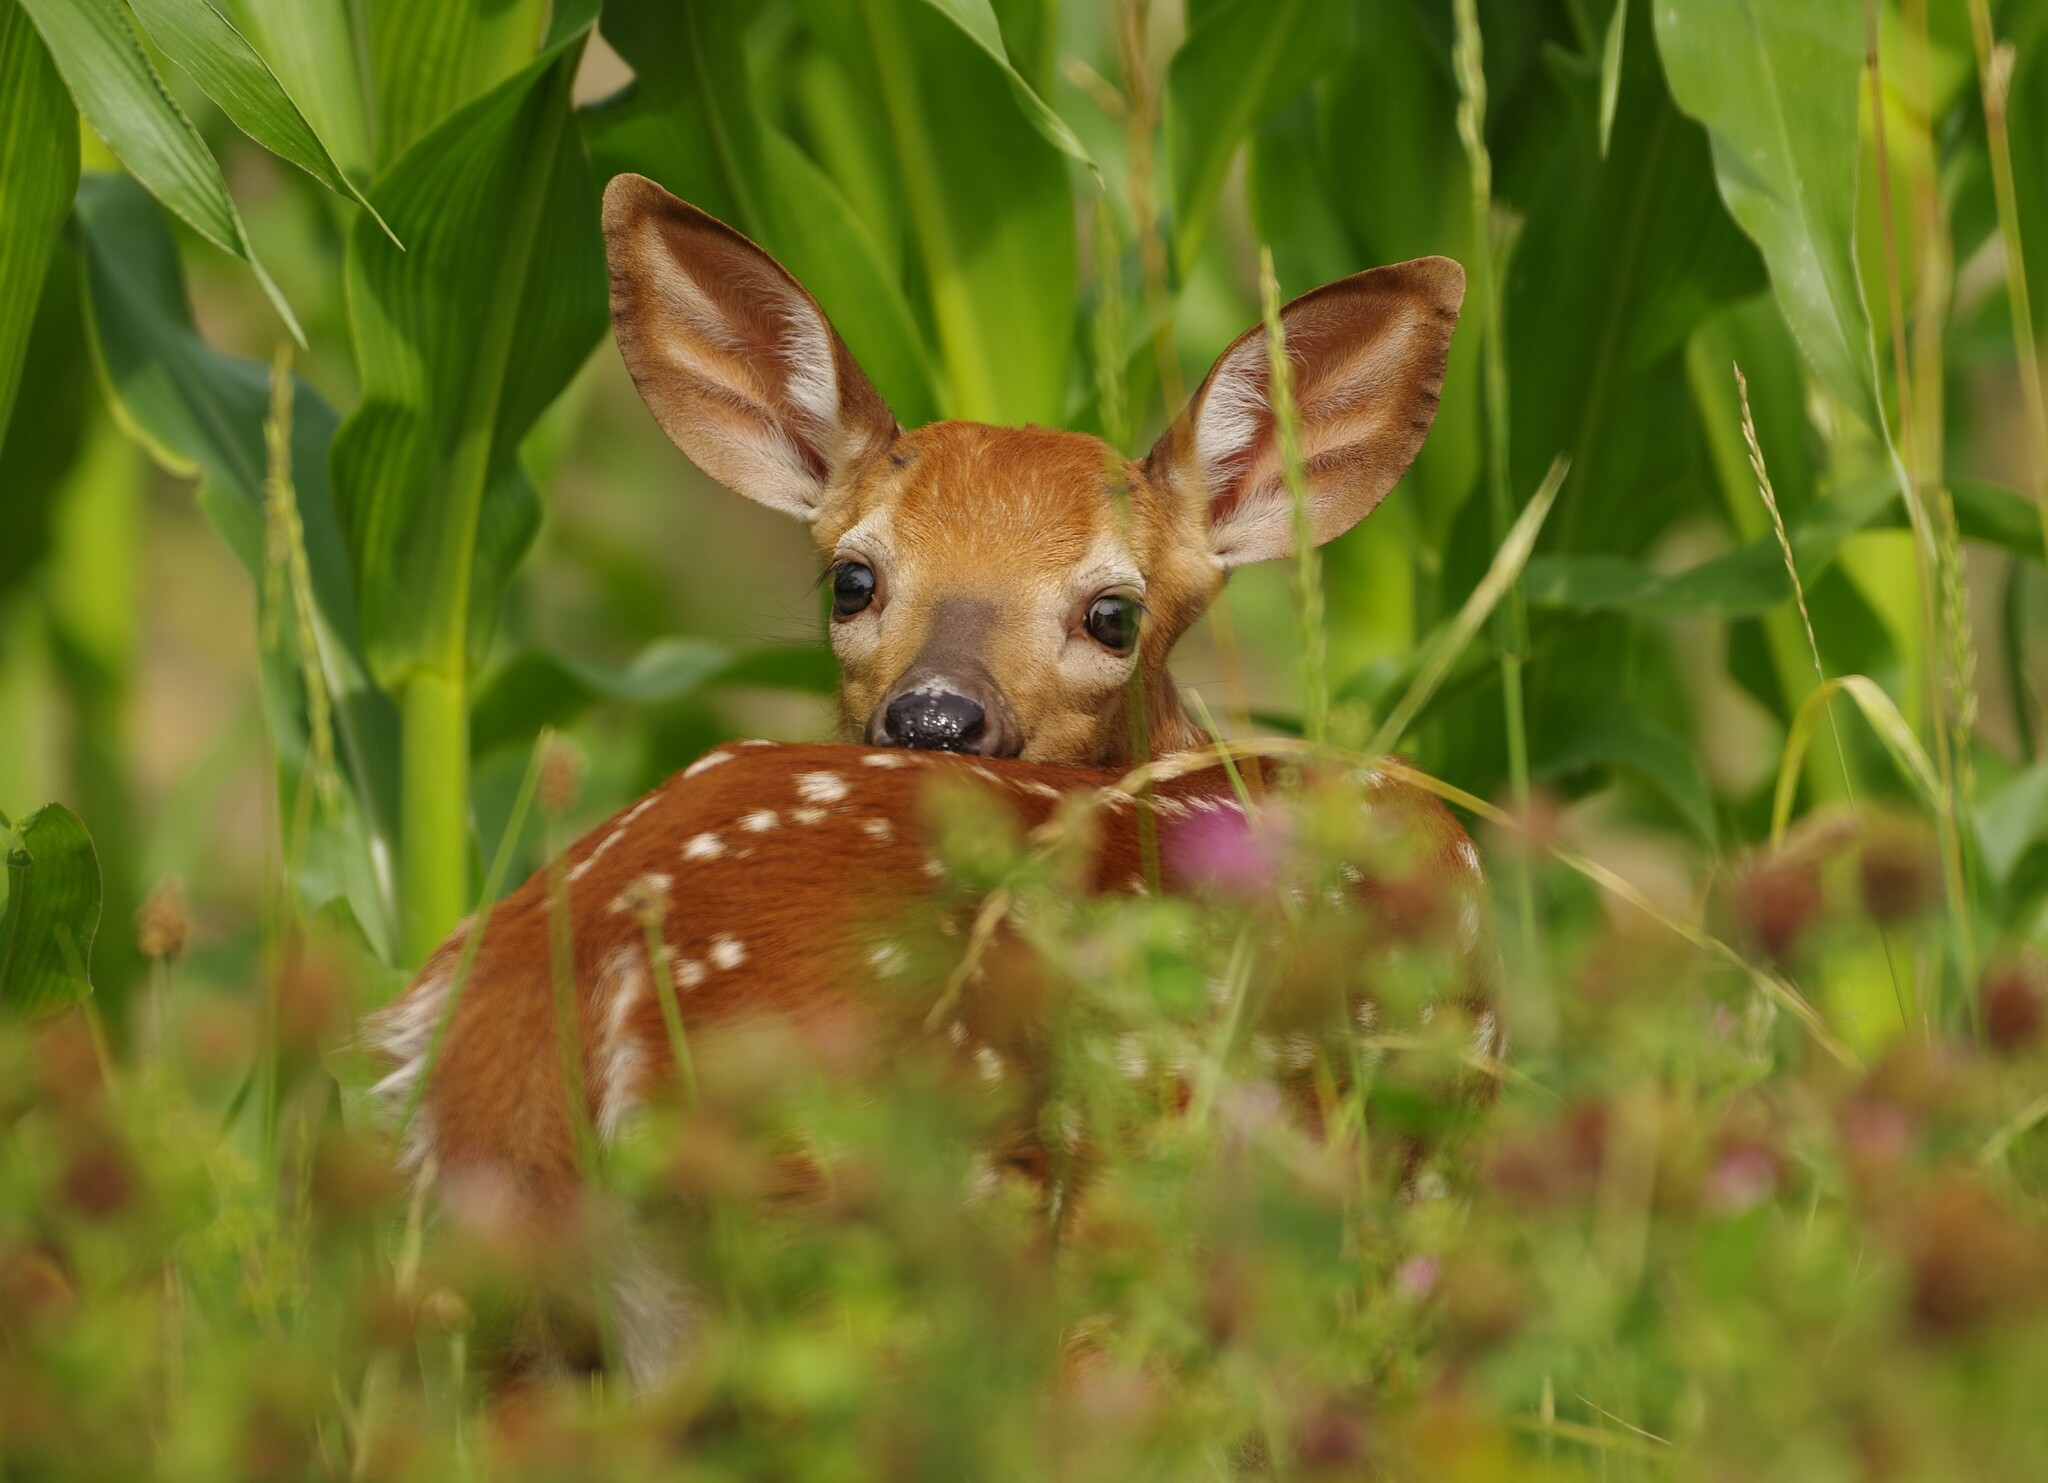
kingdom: Animalia
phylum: Chordata
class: Mammalia
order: Artiodactyla
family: Cervidae
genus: Odocoileus
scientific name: Odocoileus virginianus
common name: White-tailed deer
